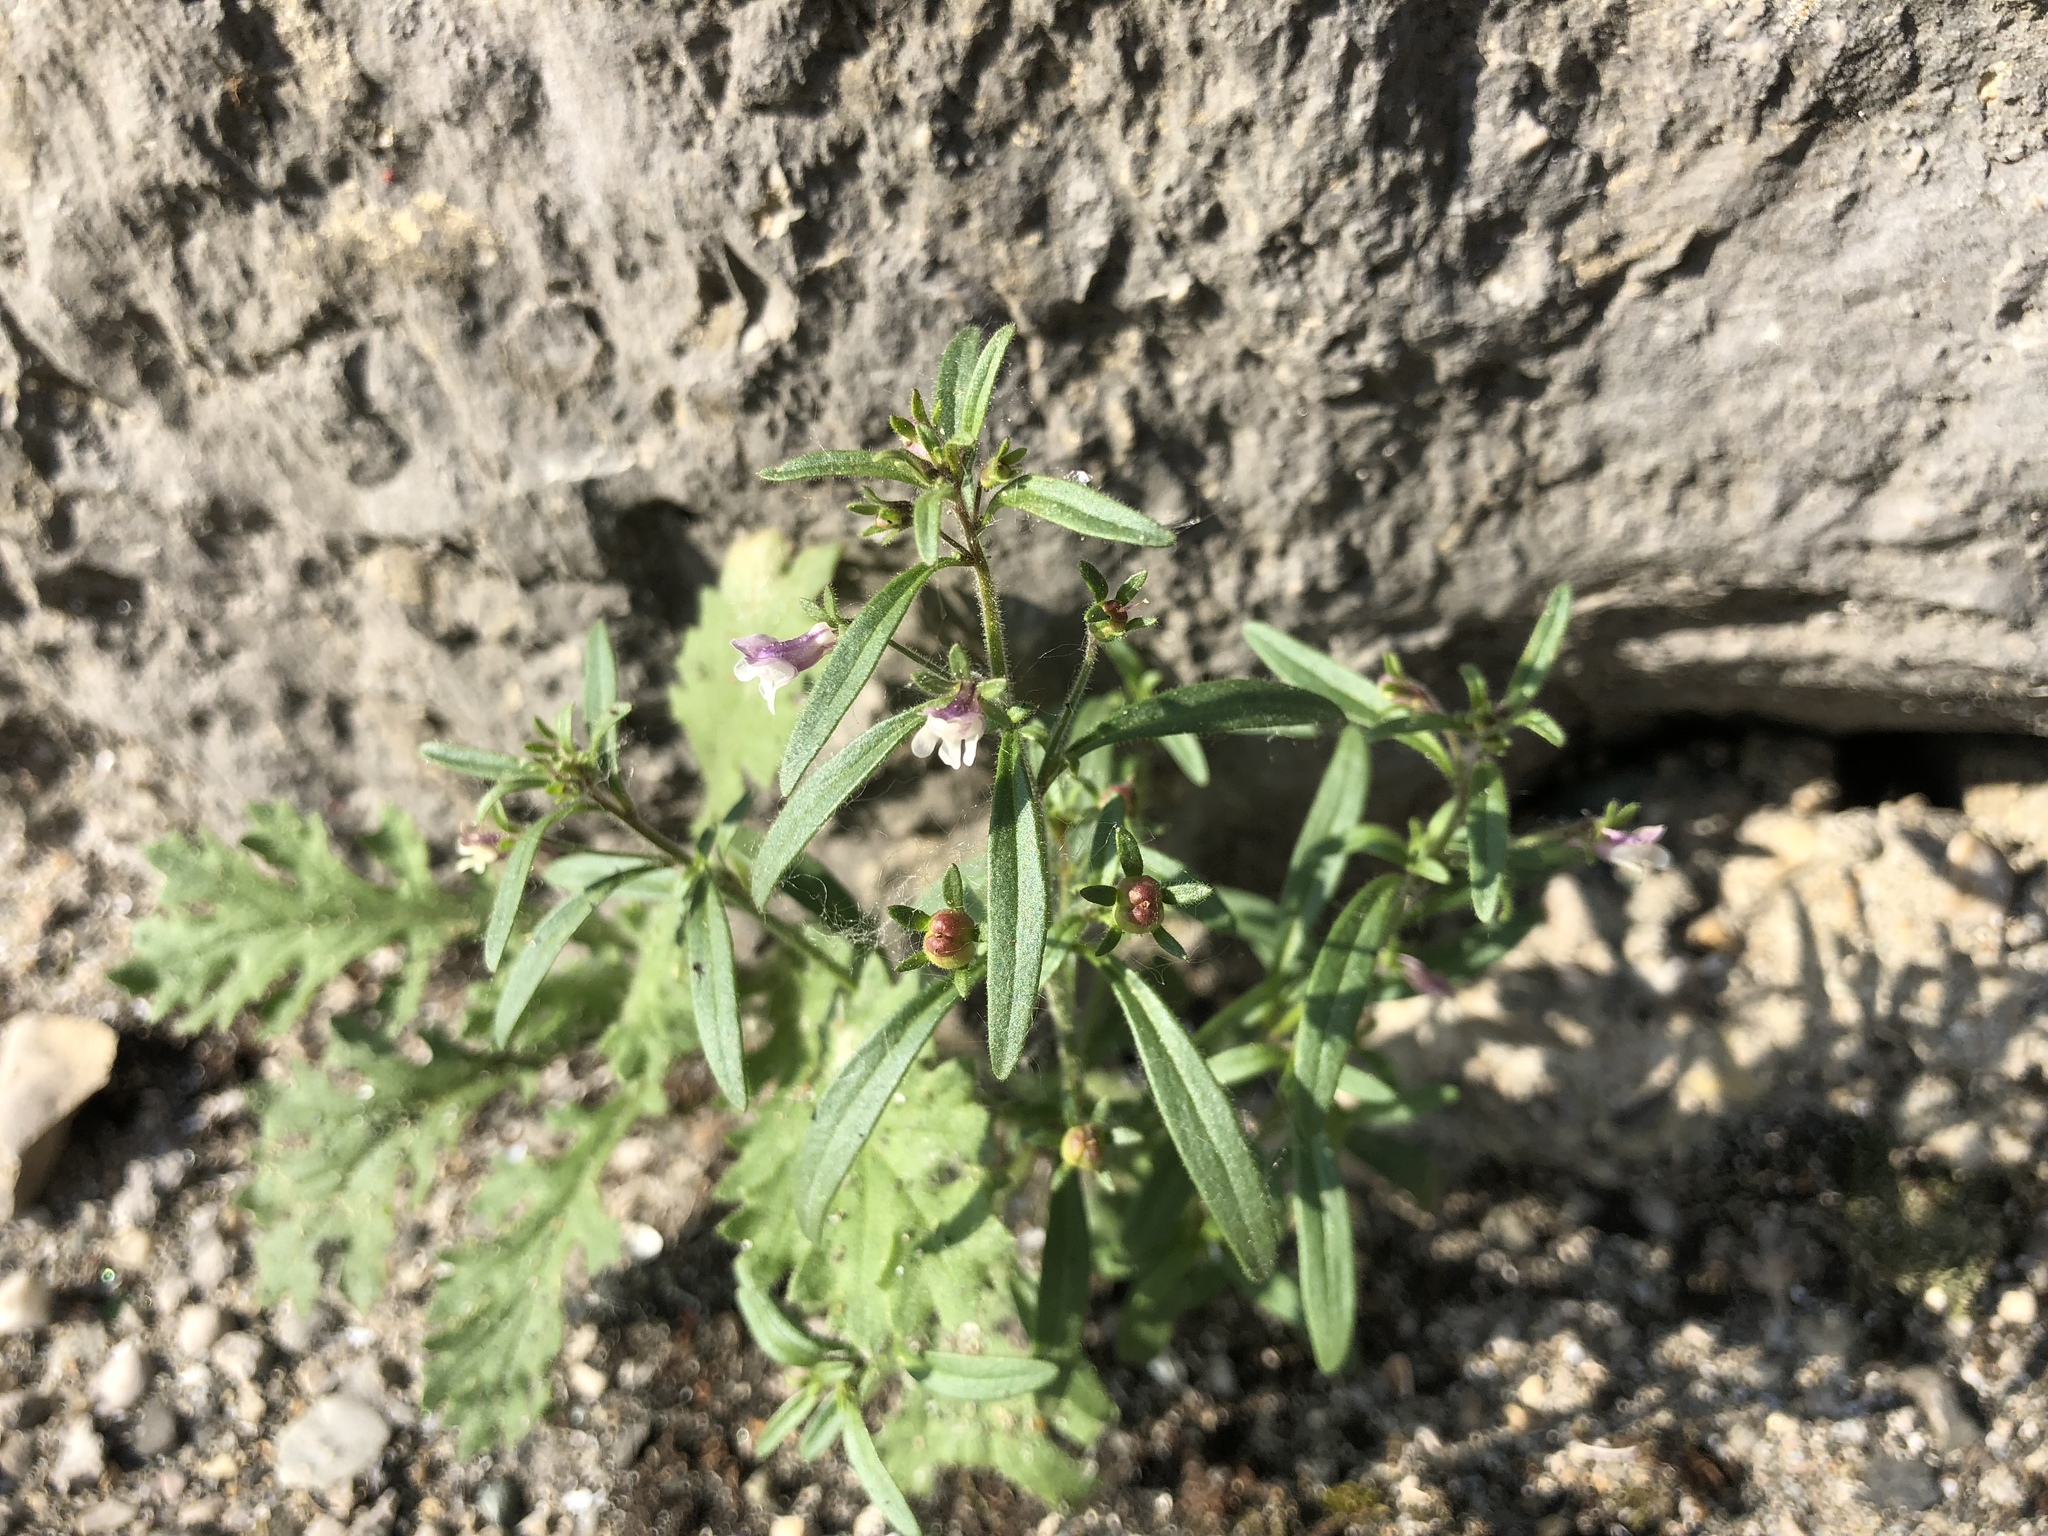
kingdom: Plantae
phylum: Tracheophyta
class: Magnoliopsida
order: Lamiales
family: Plantaginaceae
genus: Chaenorhinum
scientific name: Chaenorhinum minus
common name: Dwarf snapdragon
